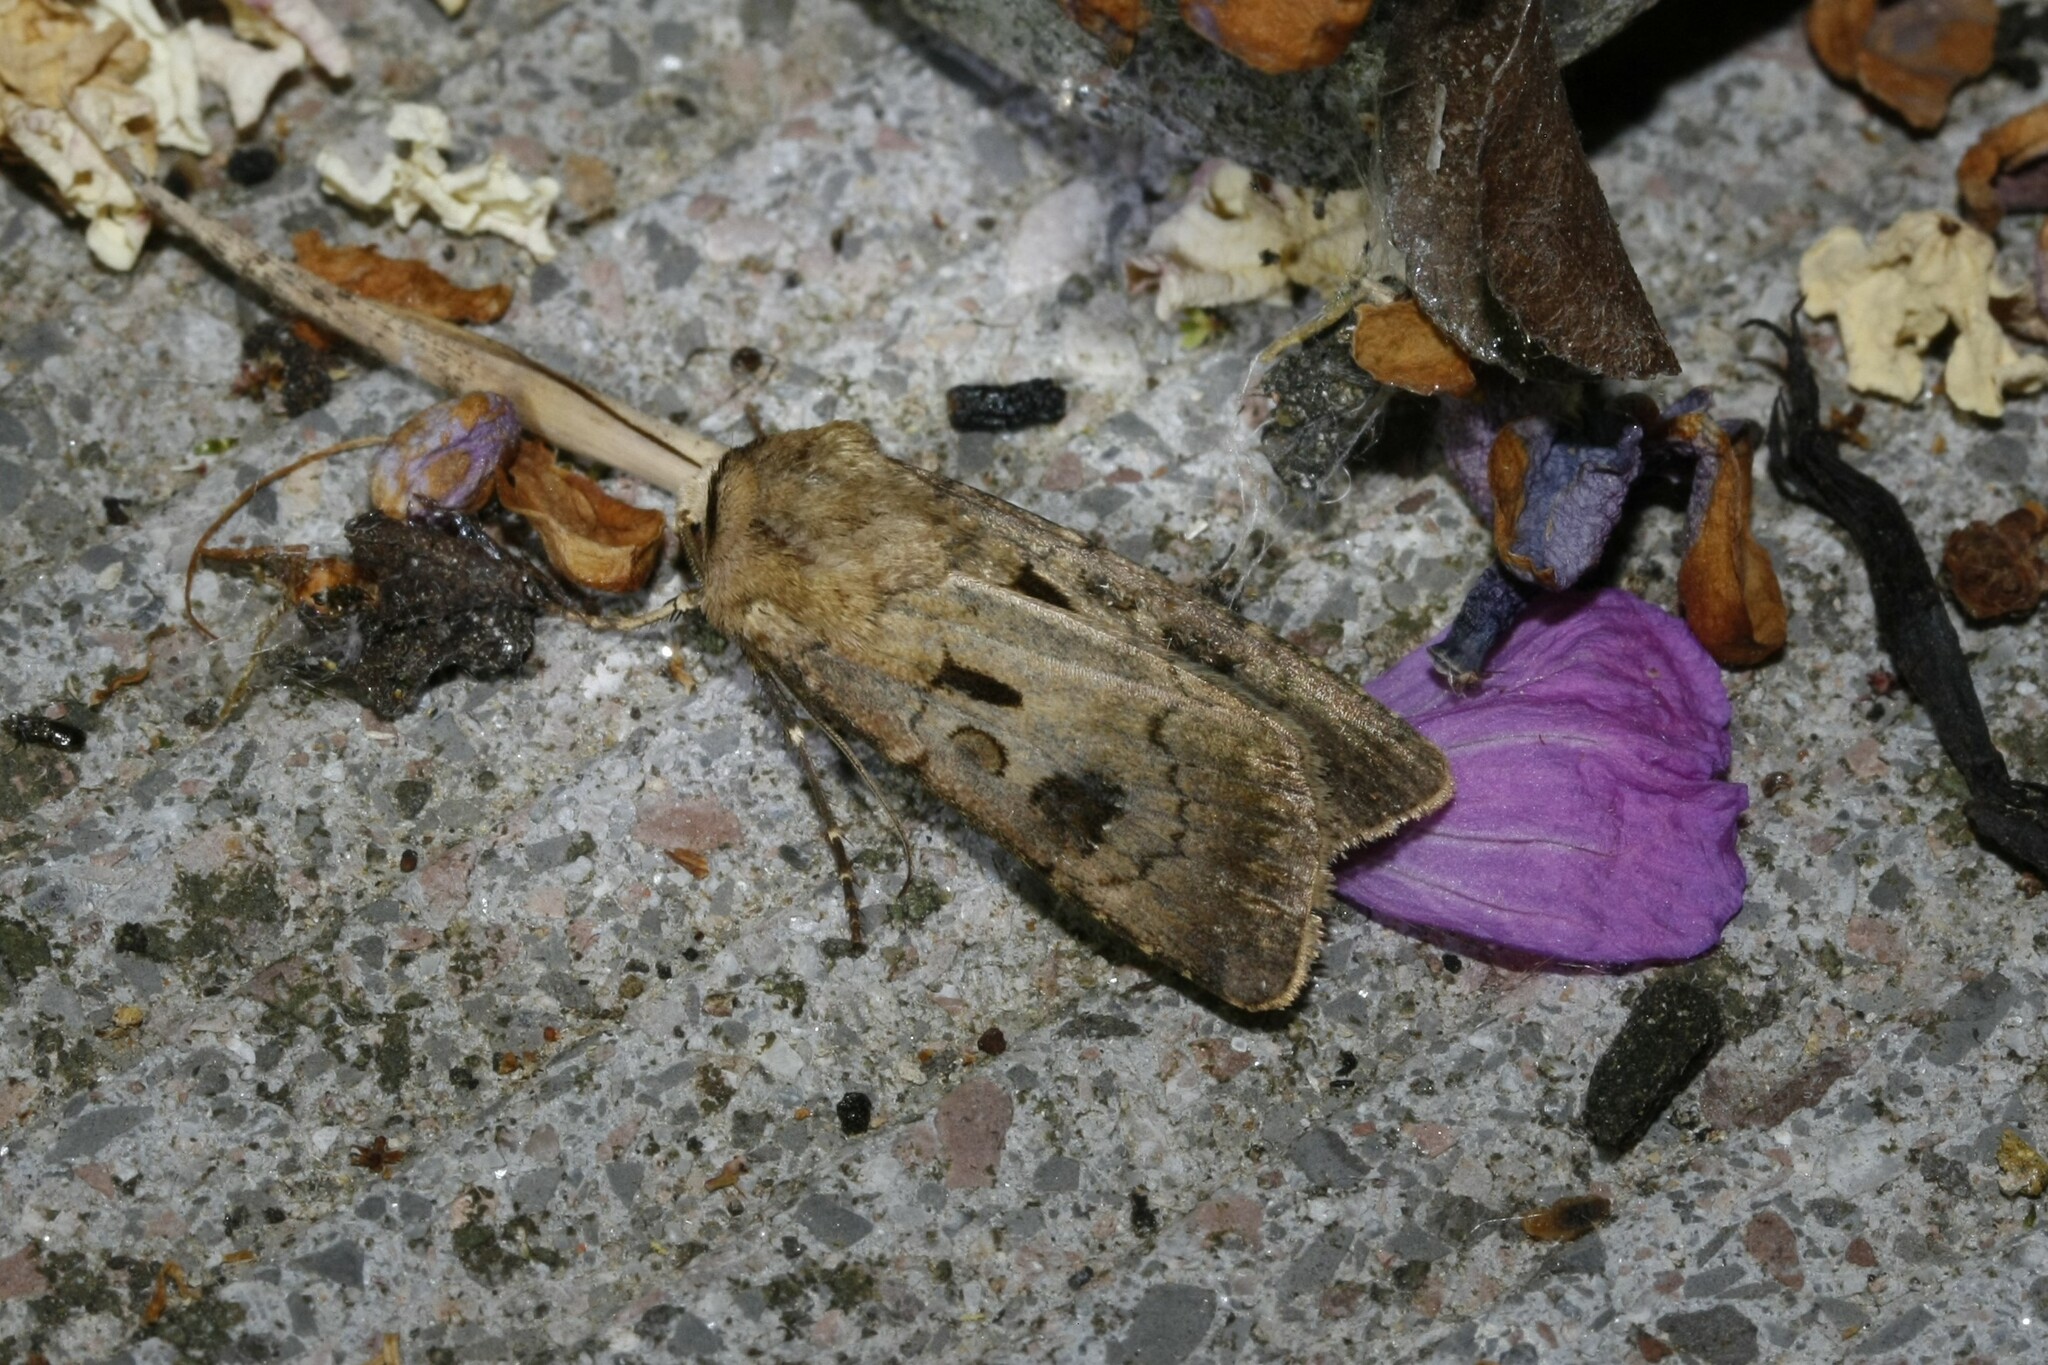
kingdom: Animalia
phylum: Arthropoda
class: Insecta
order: Lepidoptera
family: Noctuidae
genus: Agrotis
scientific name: Agrotis exclamationis
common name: Heart and dart
